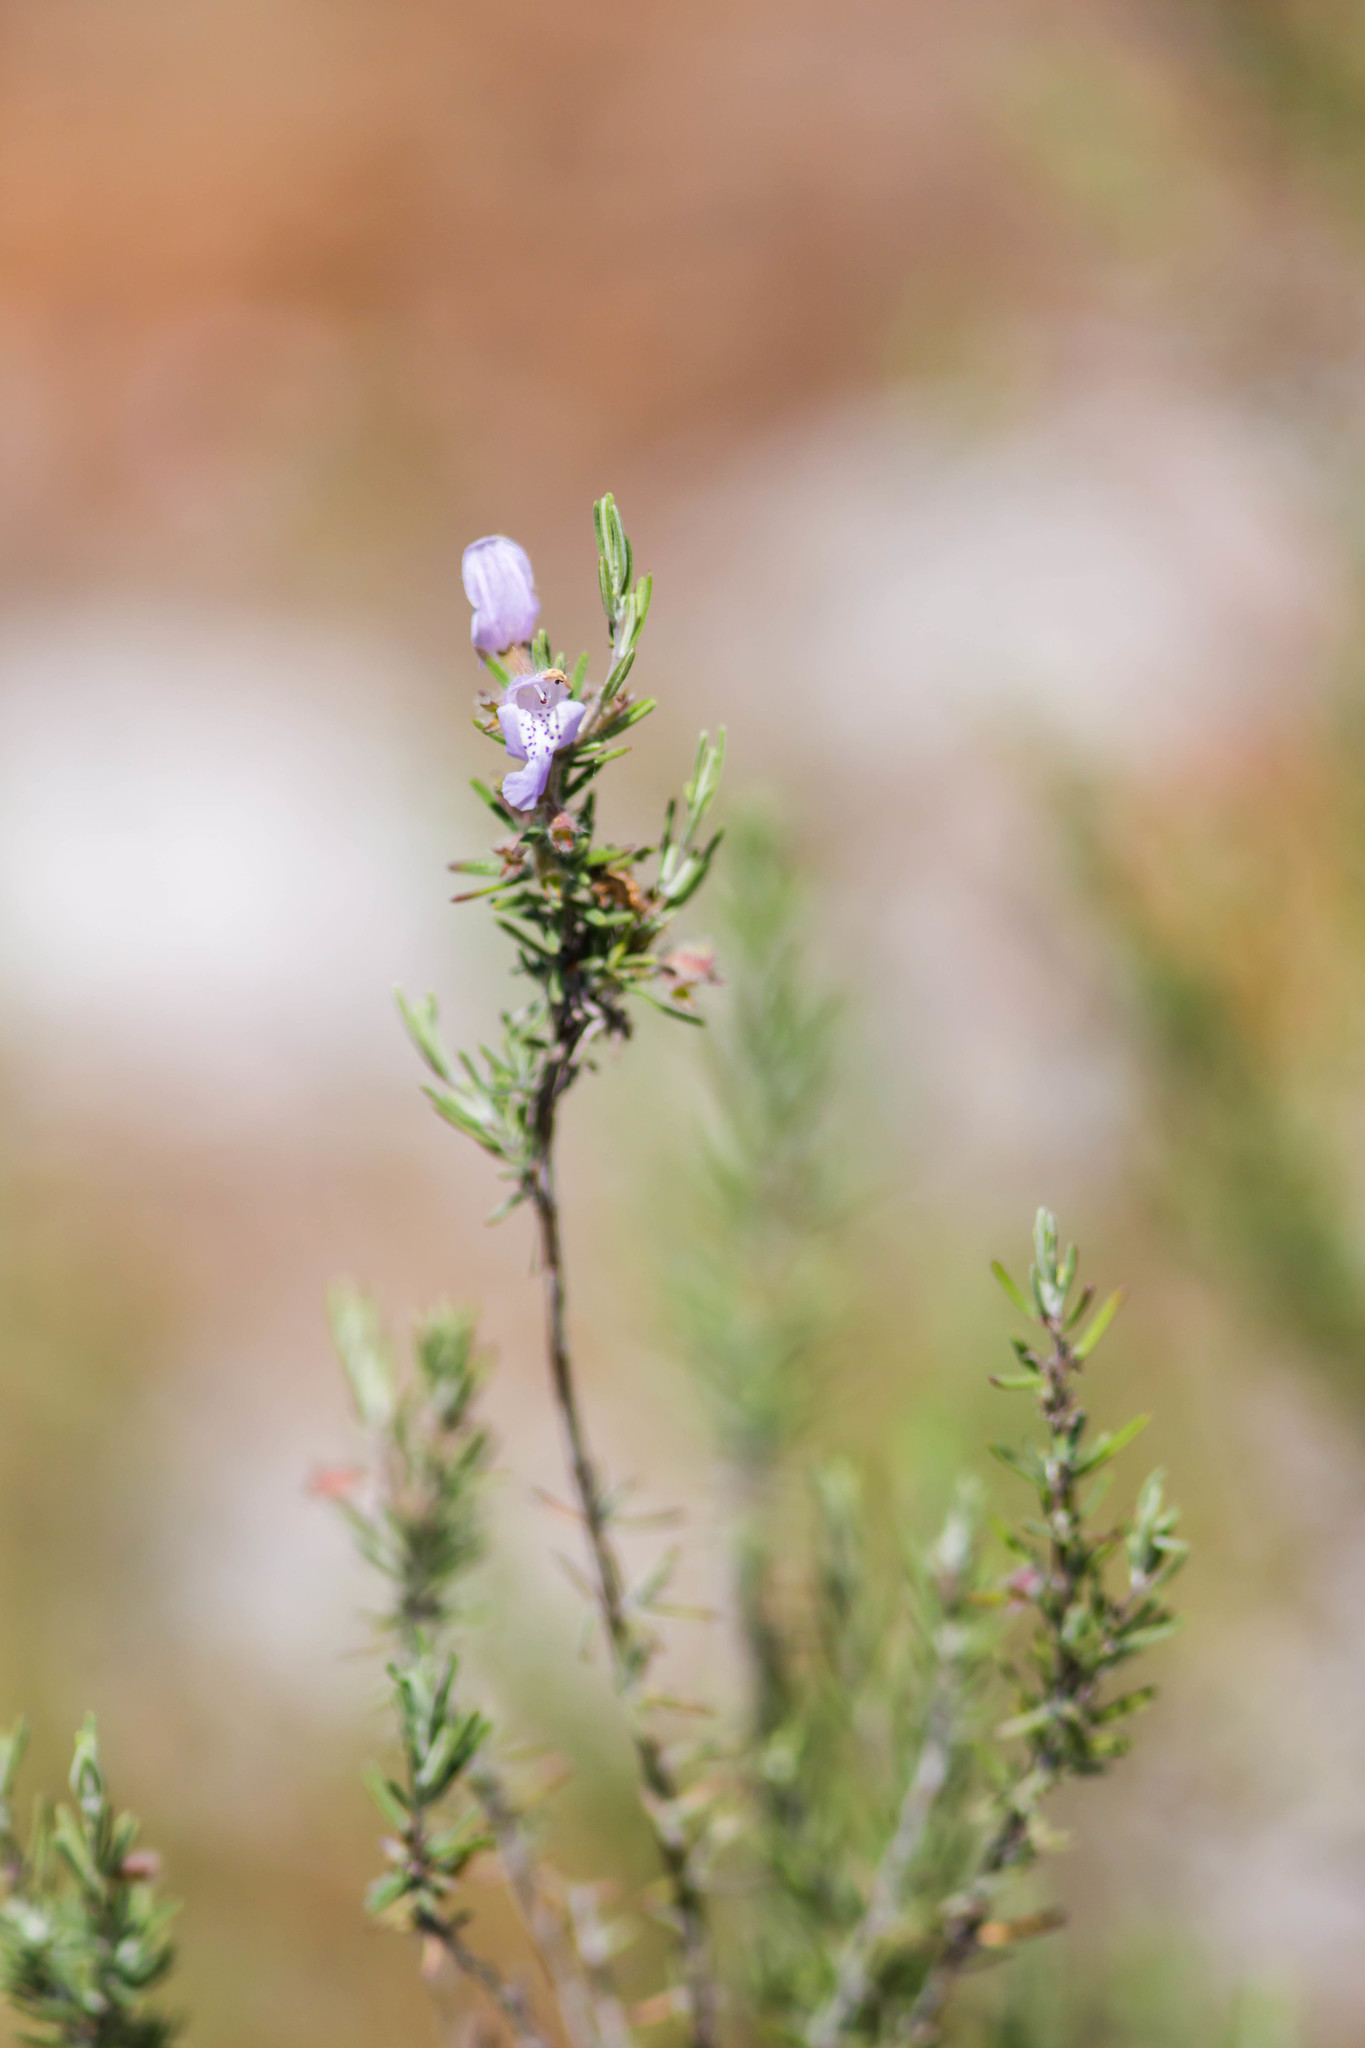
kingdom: Plantae
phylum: Tracheophyta
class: Magnoliopsida
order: Lamiales
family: Lamiaceae
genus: Conradina
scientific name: Conradina canescens
